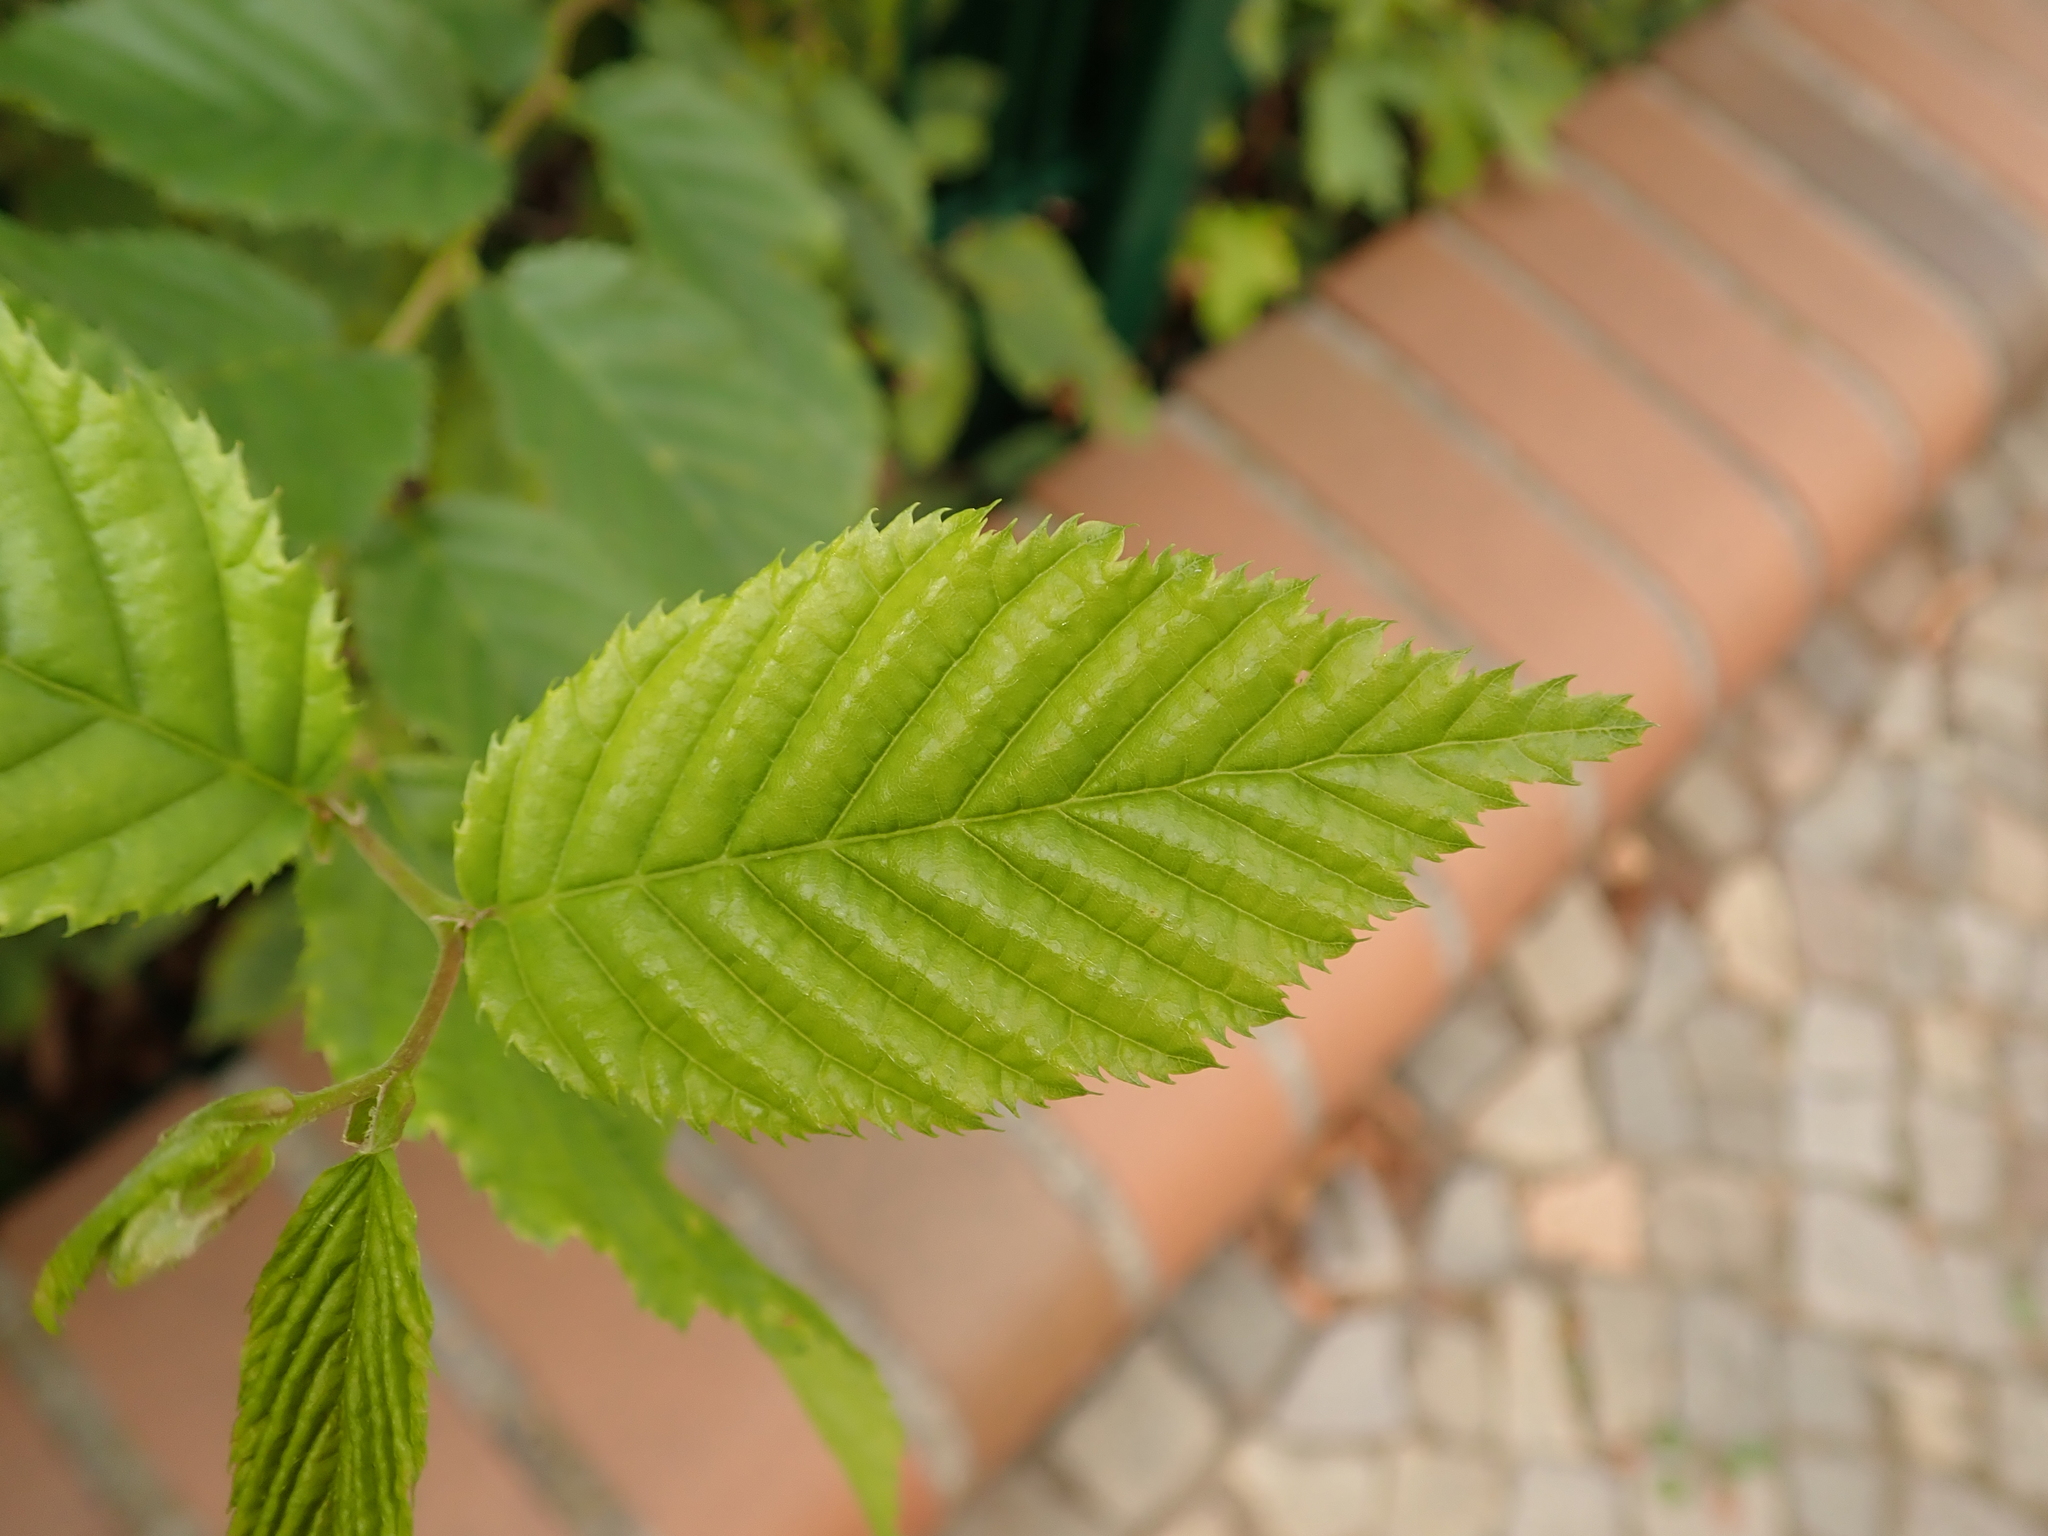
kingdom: Plantae
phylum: Tracheophyta
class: Magnoliopsida
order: Fagales
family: Betulaceae
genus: Carpinus
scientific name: Carpinus betulus
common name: Hornbeam
